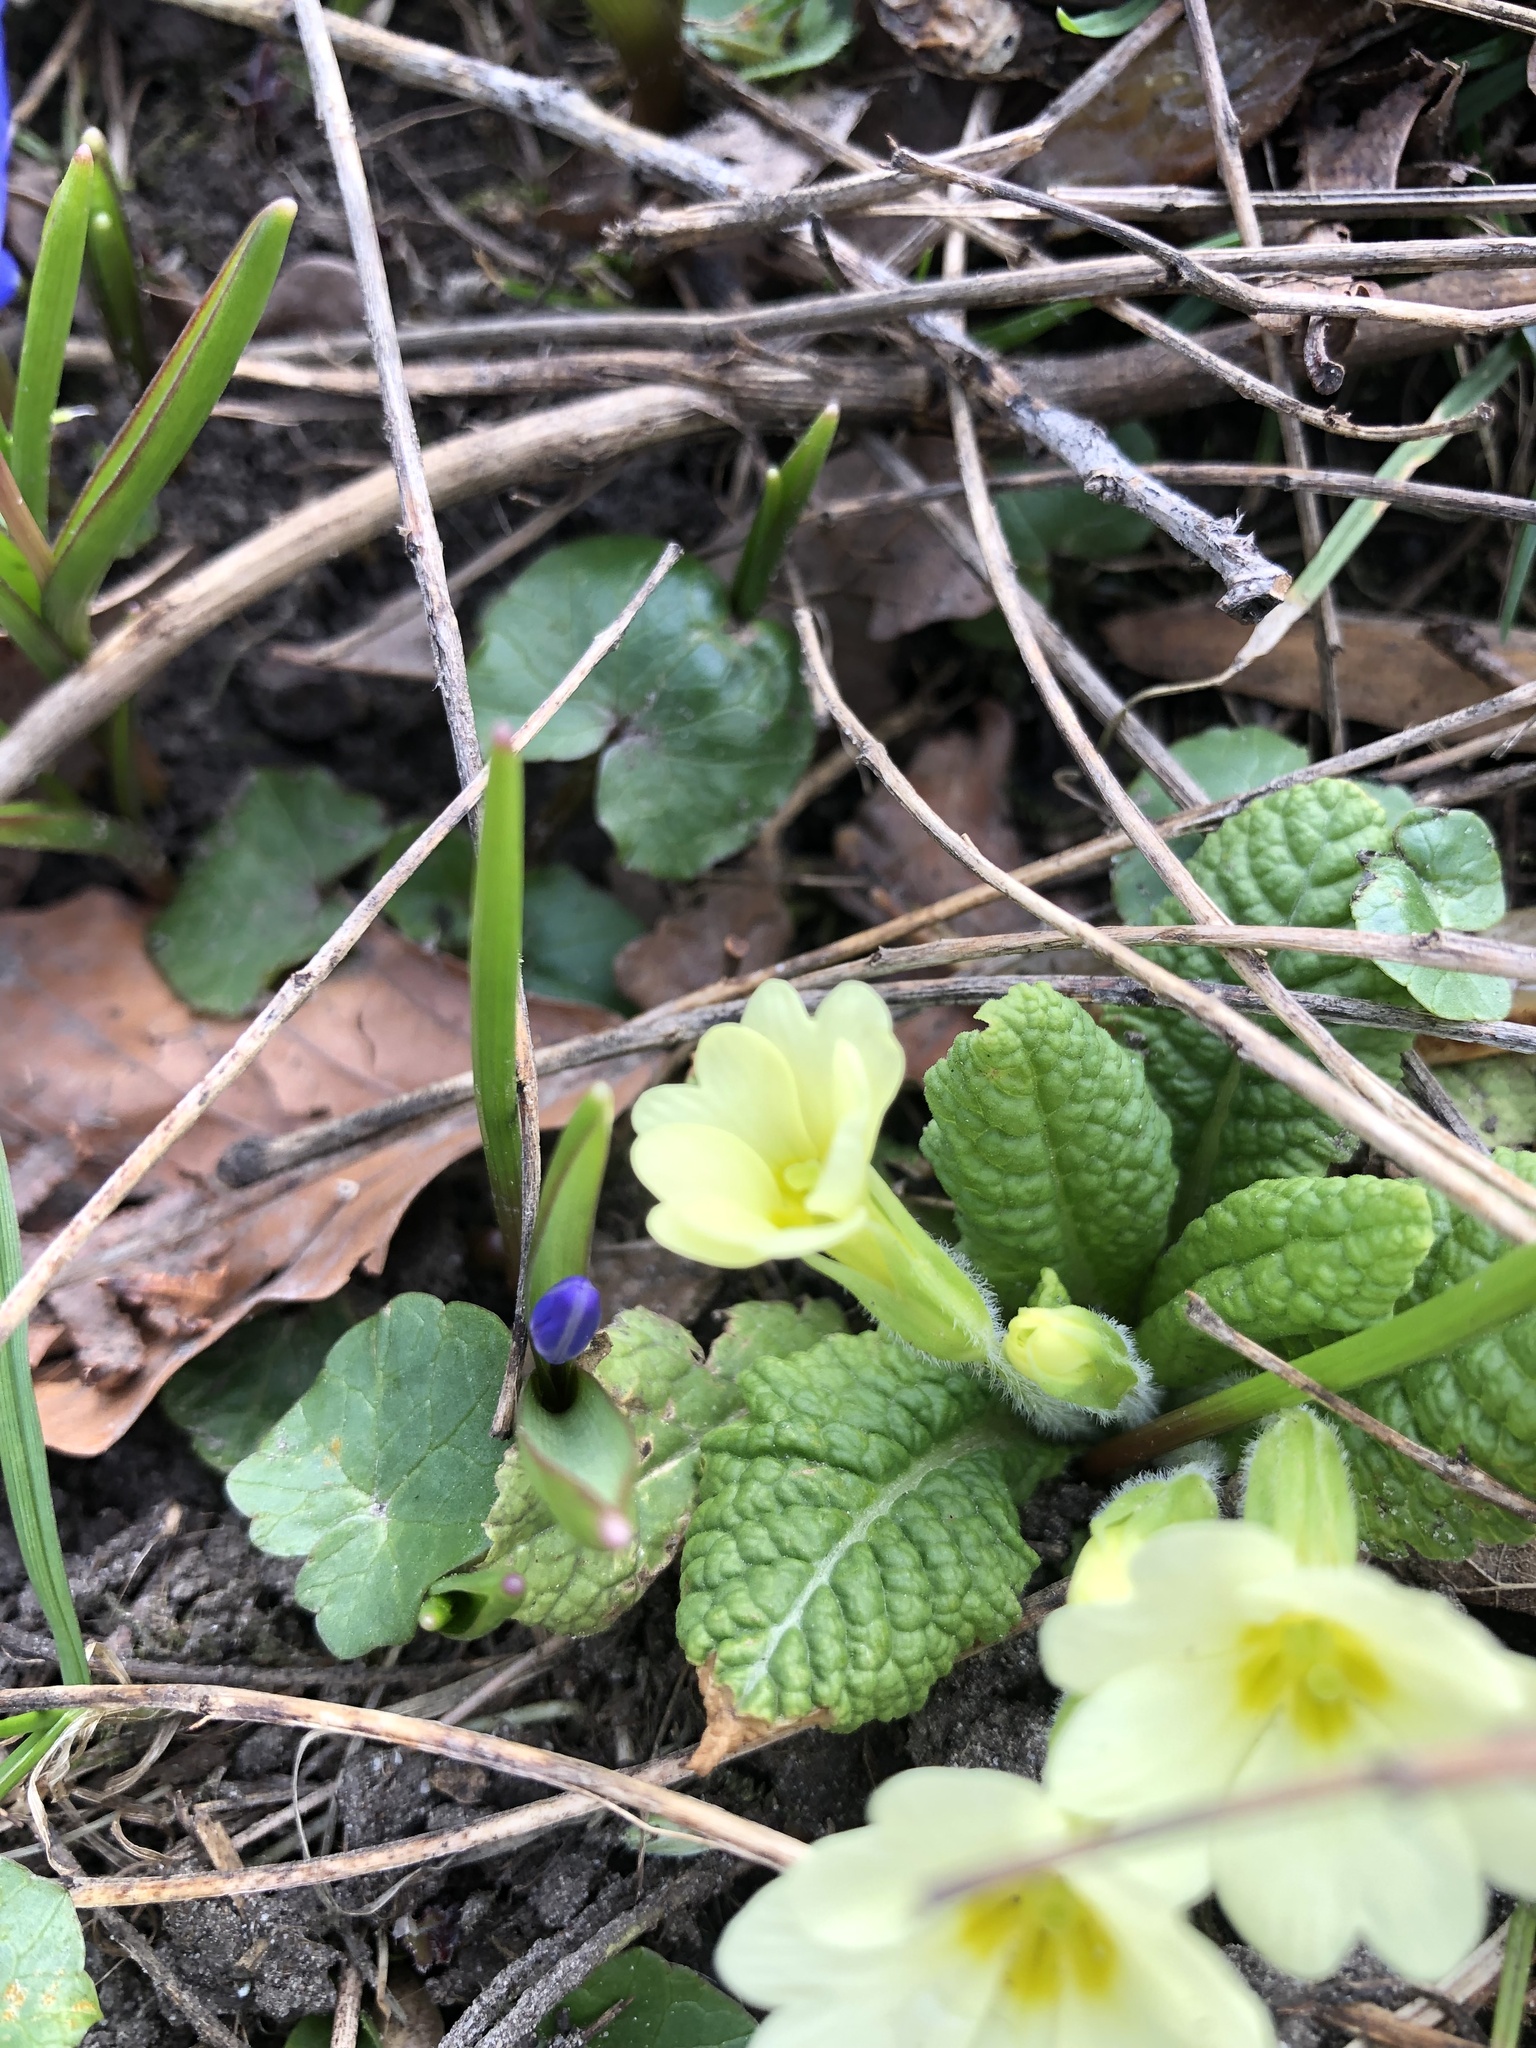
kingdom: Plantae
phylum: Tracheophyta
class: Magnoliopsida
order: Ericales
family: Primulaceae
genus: Primula
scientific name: Primula vulgaris
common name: Primrose
